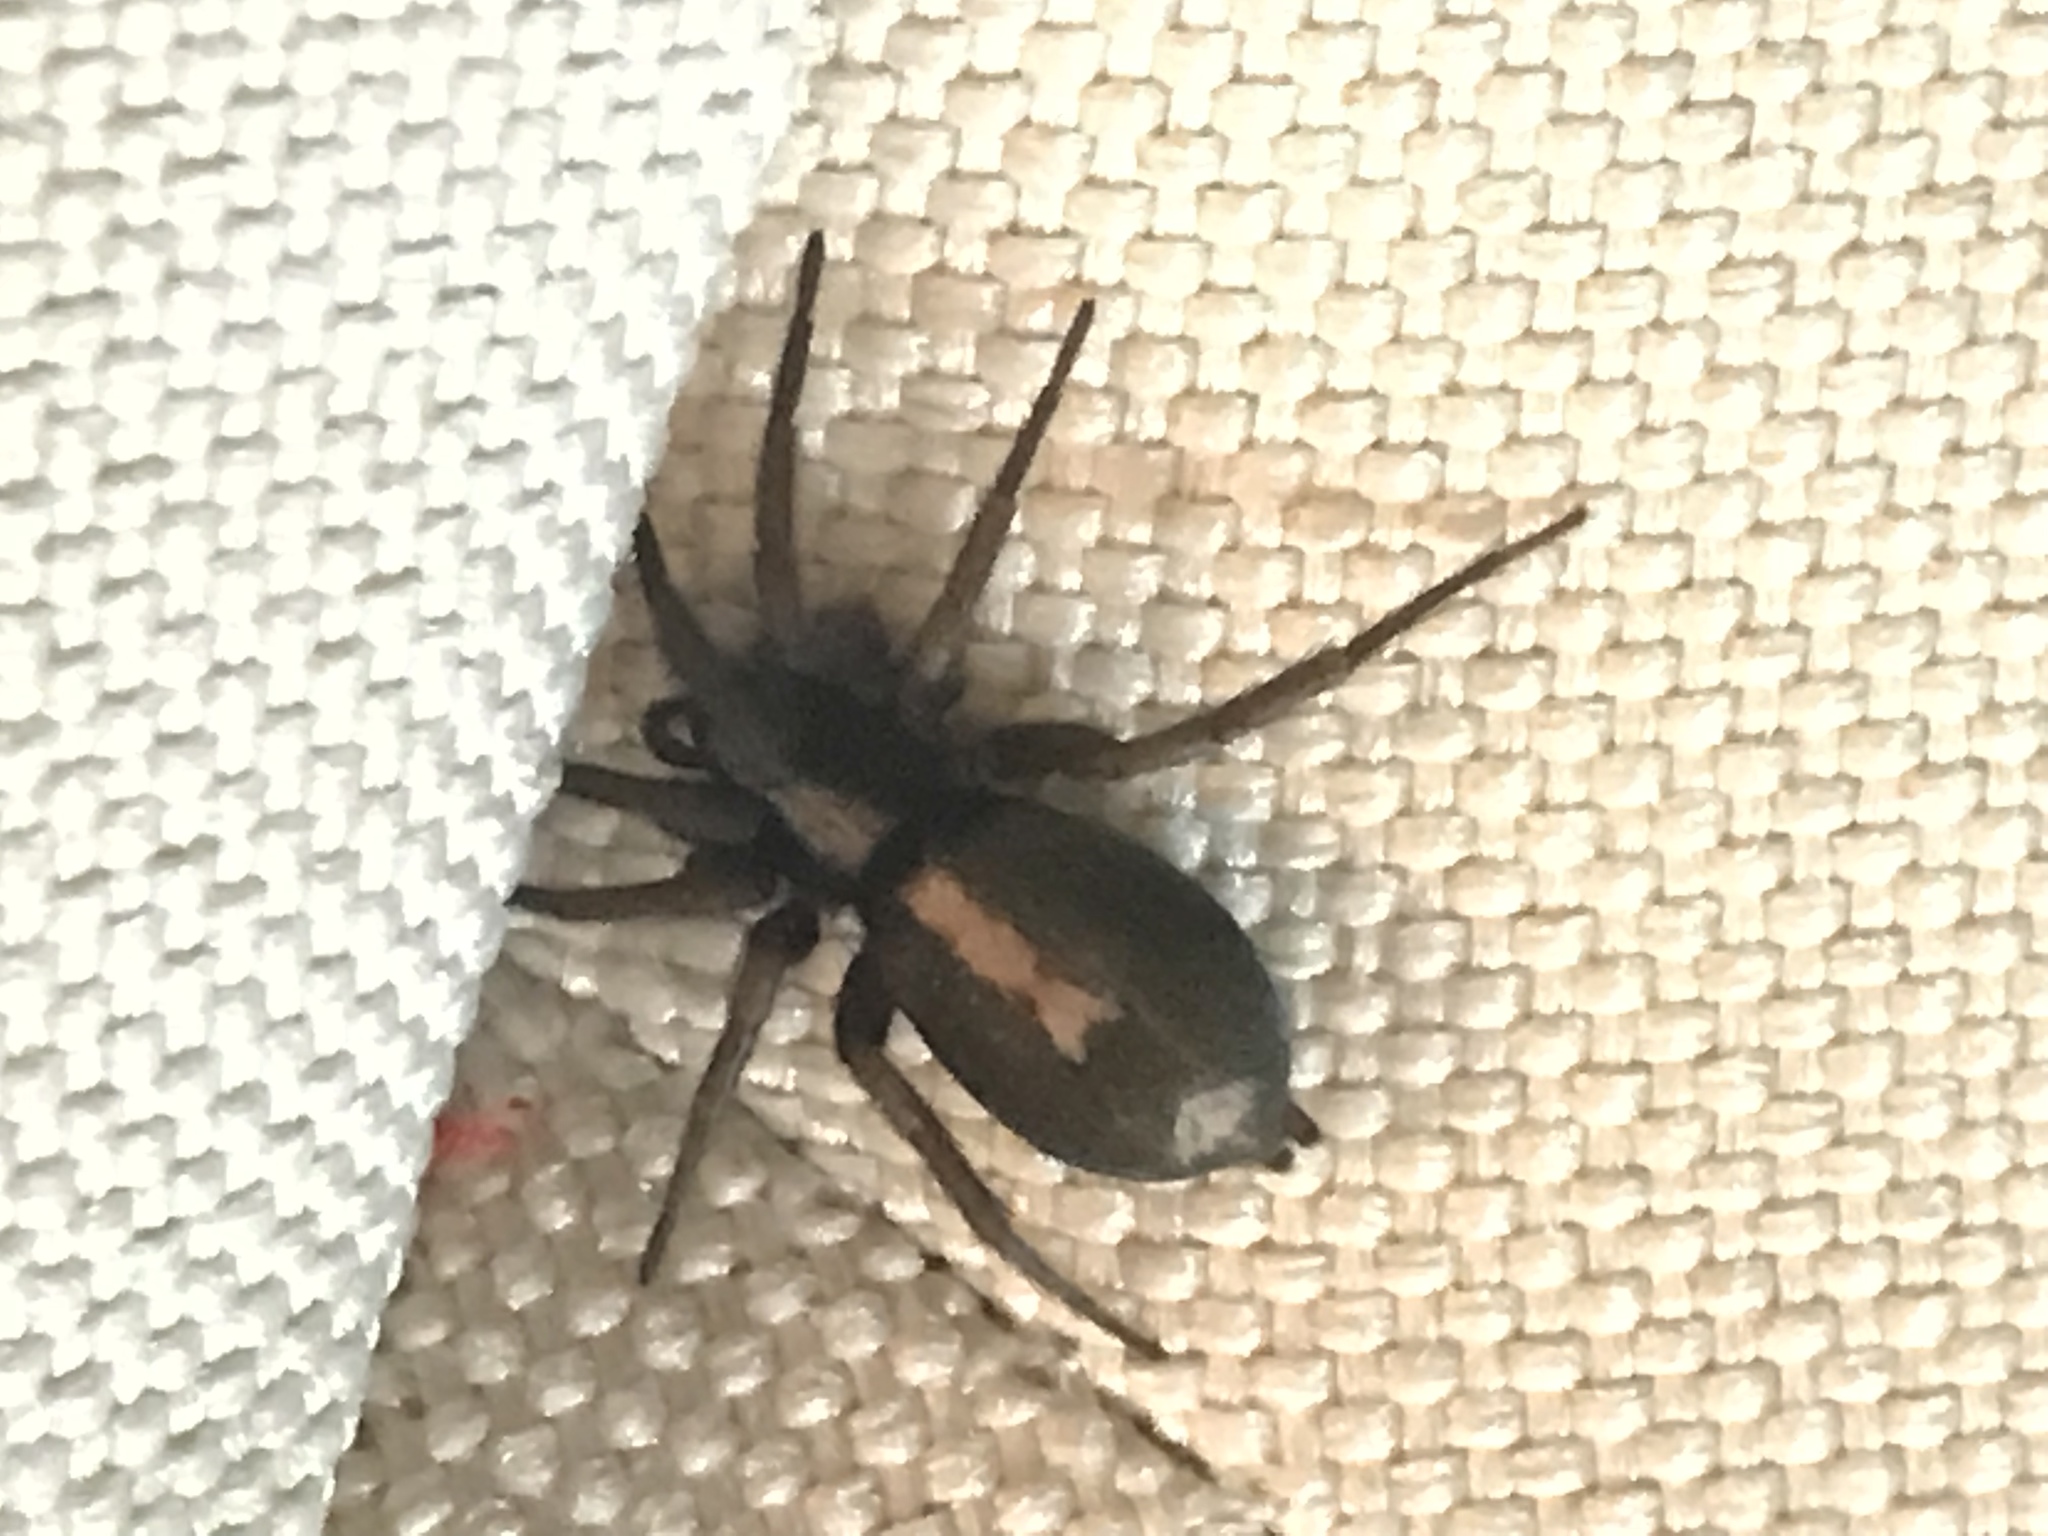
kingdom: Animalia
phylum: Arthropoda
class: Arachnida
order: Araneae
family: Gnaphosidae
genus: Herpyllus
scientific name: Herpyllus propinquus
